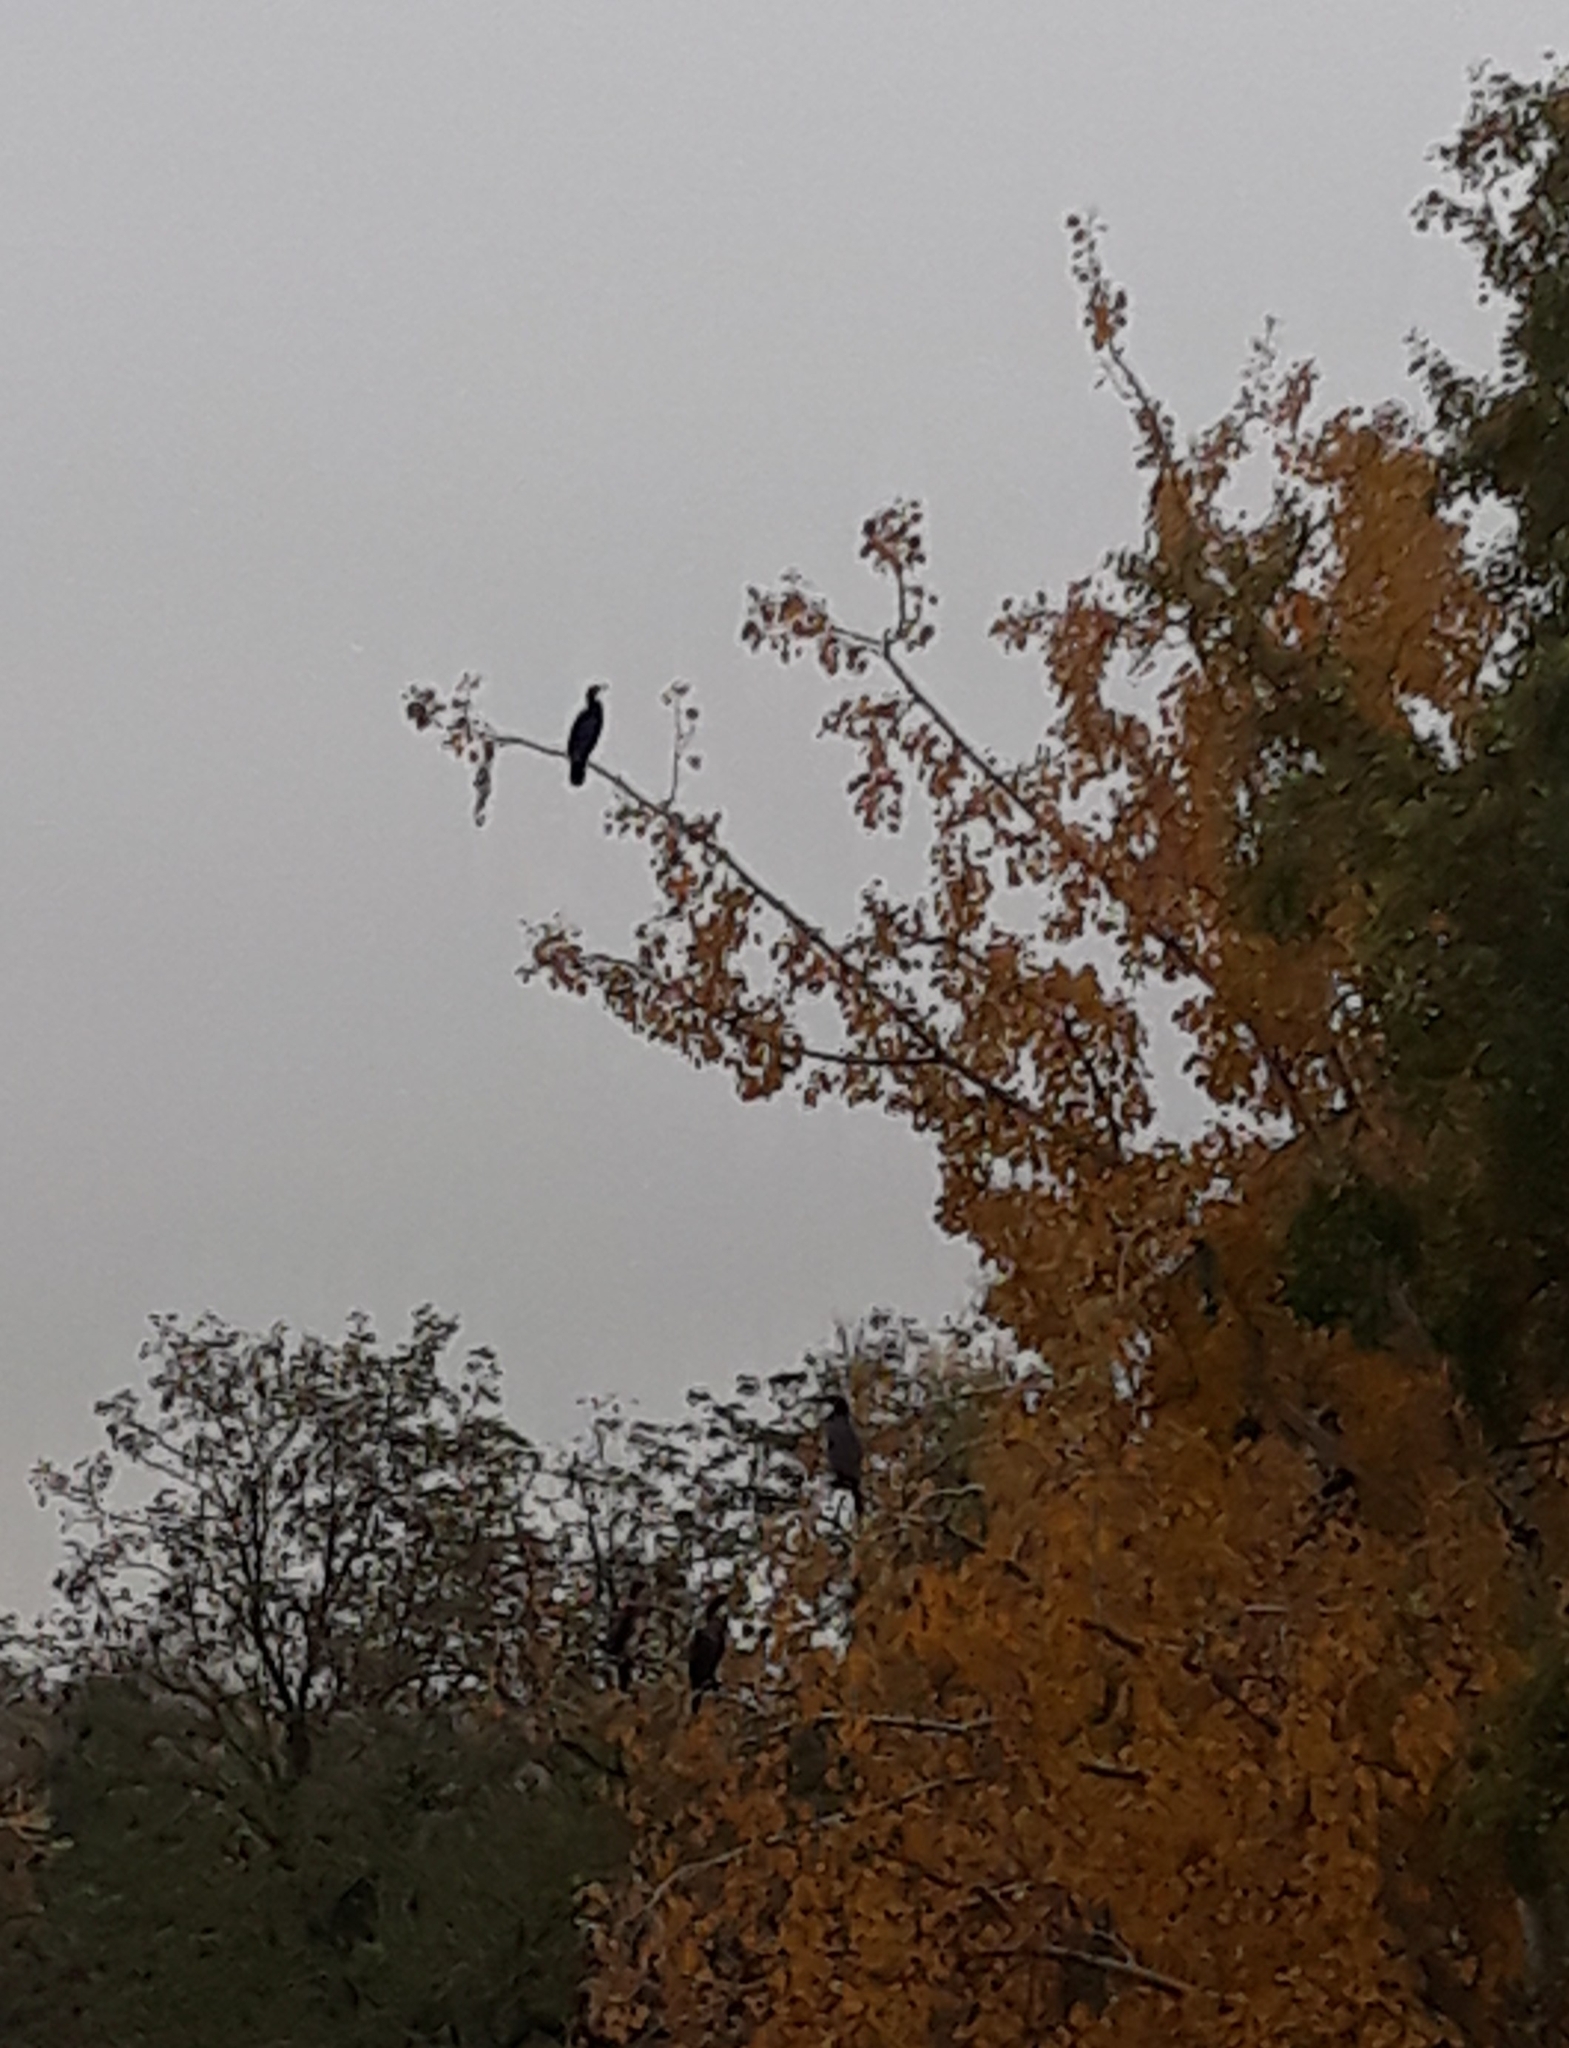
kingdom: Animalia
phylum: Chordata
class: Aves
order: Suliformes
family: Phalacrocoracidae
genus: Phalacrocorax
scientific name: Phalacrocorax carbo
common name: Great cormorant
